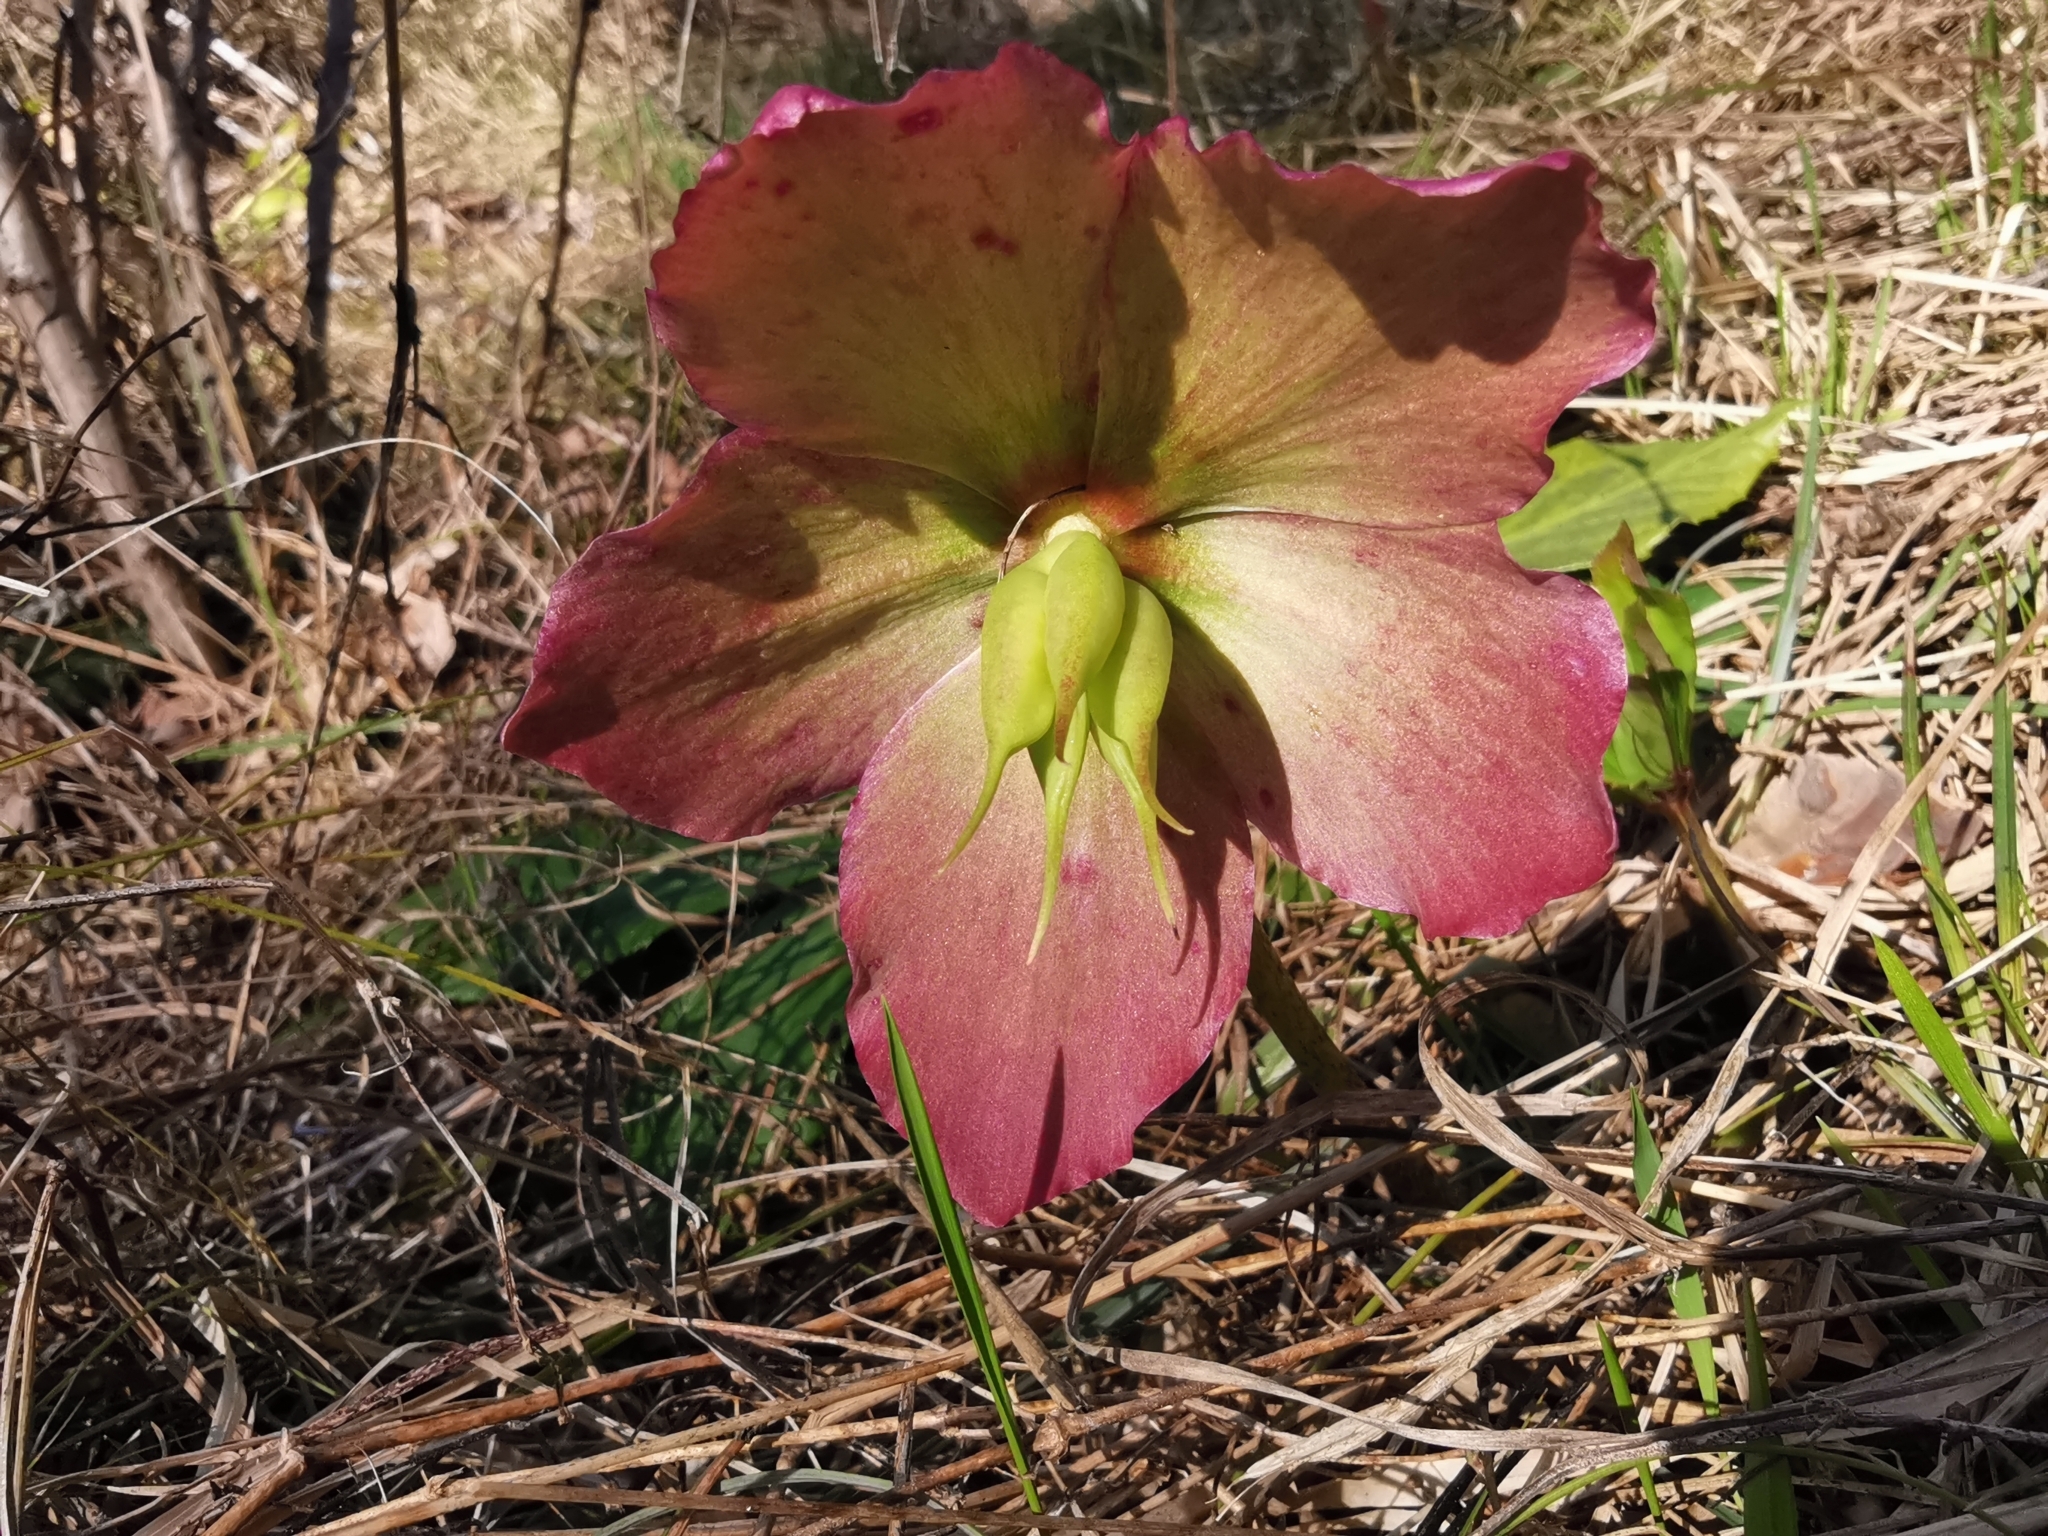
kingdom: Plantae
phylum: Tracheophyta
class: Magnoliopsida
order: Ranunculales
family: Ranunculaceae
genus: Helleborus
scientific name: Helleborus niger
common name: Black hellebore
